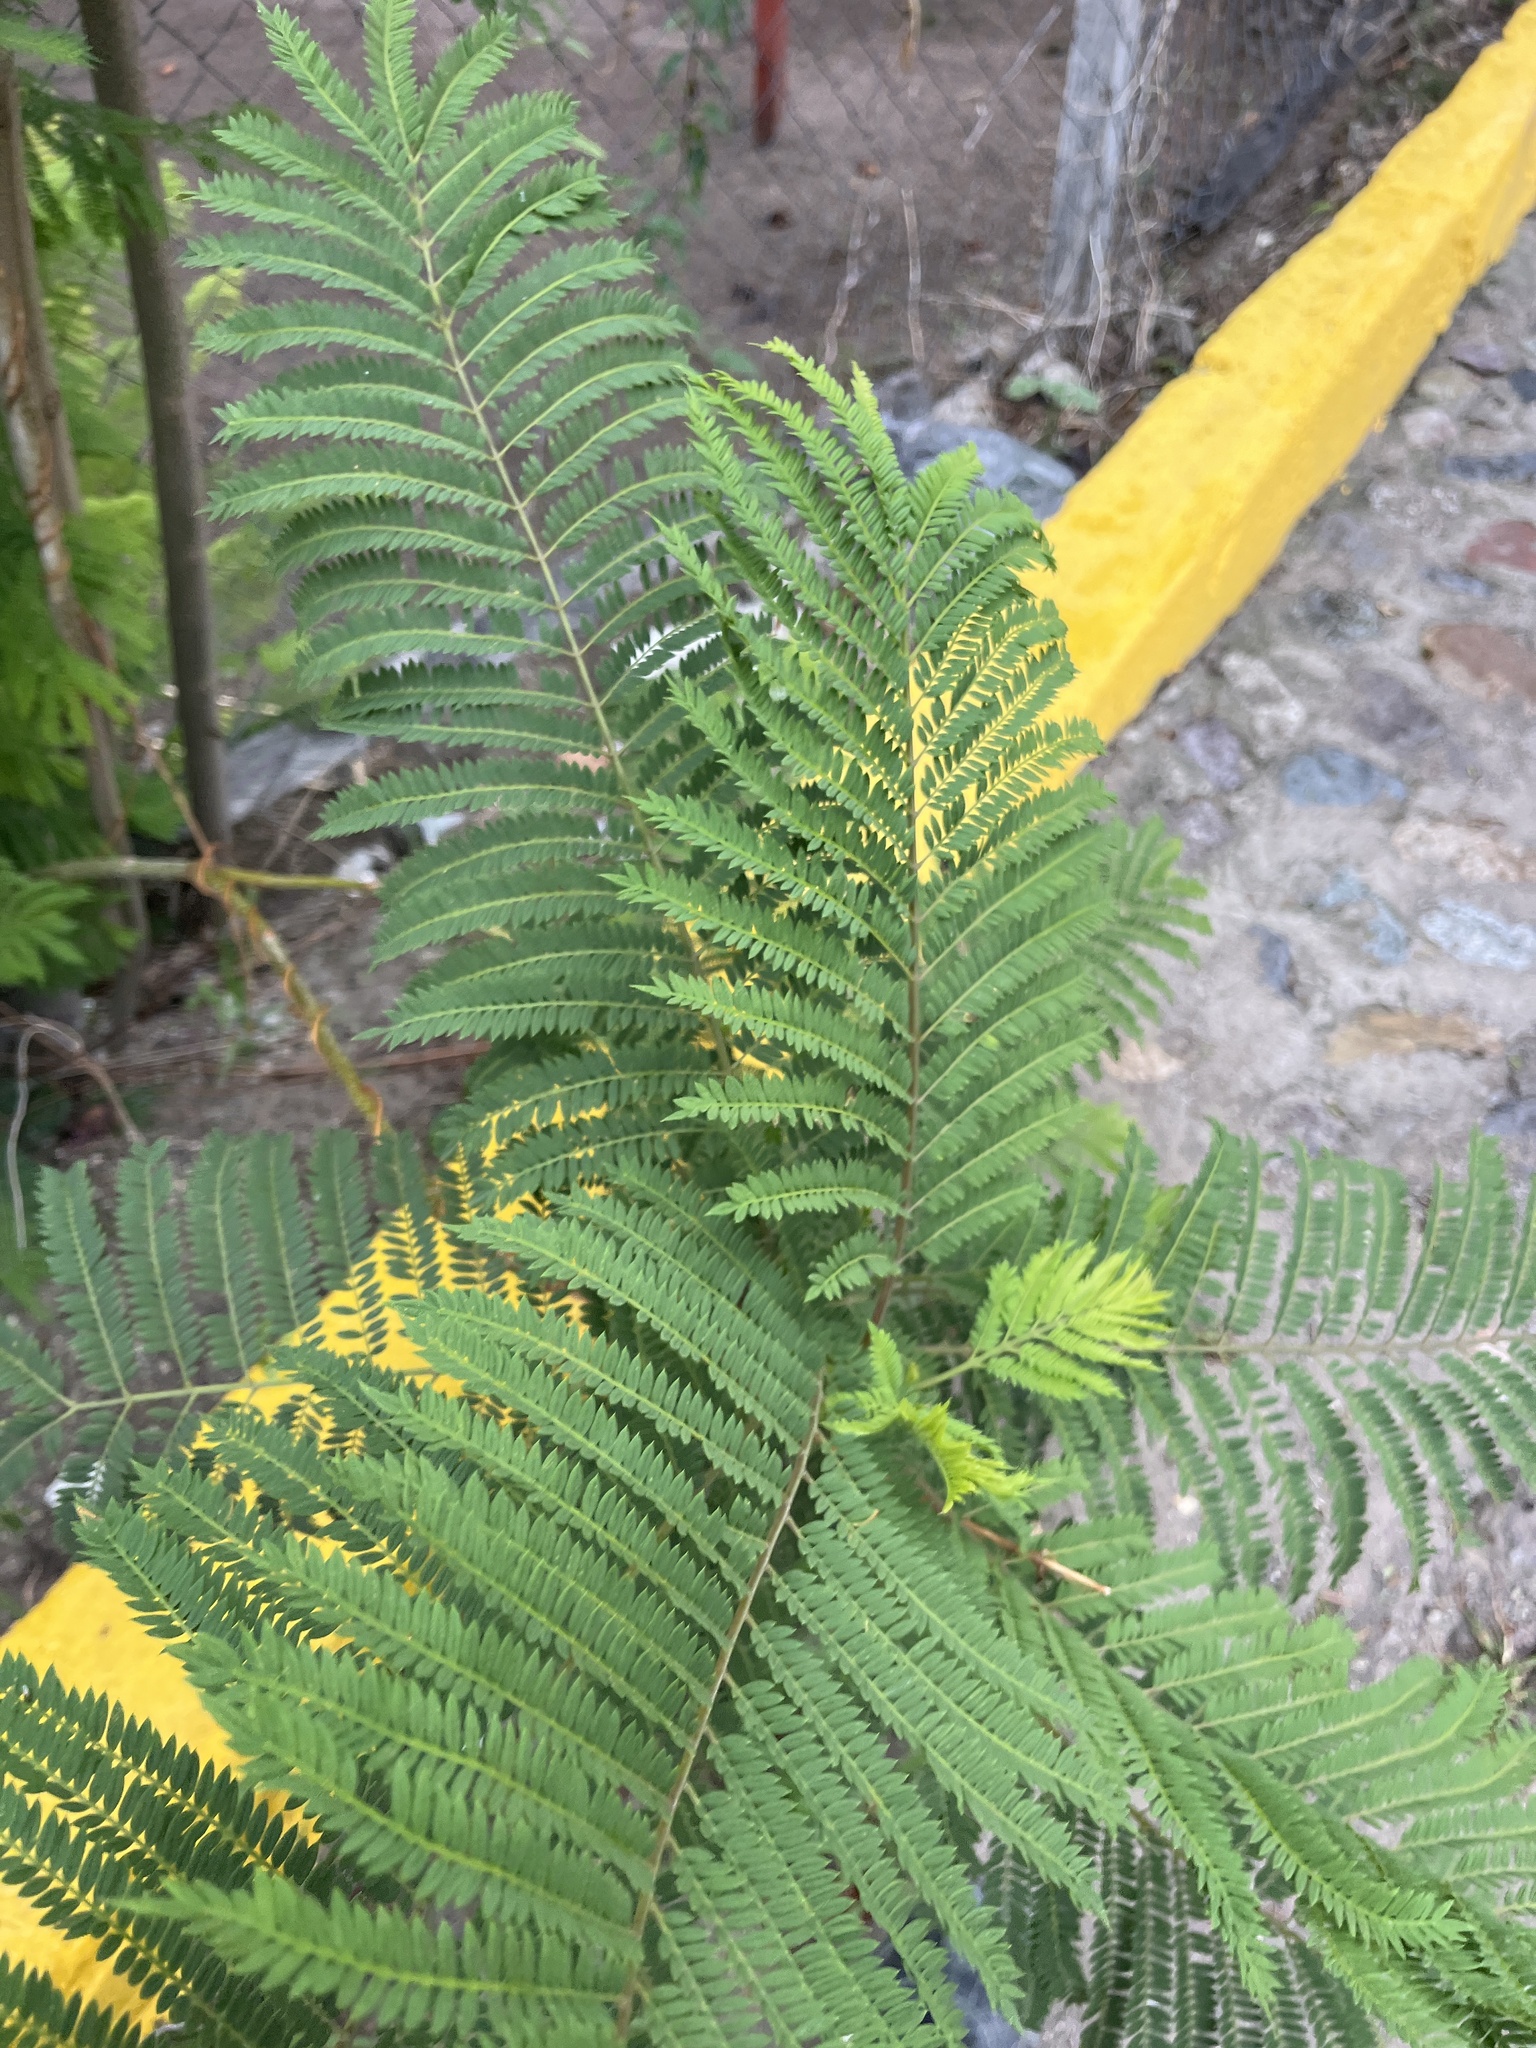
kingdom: Plantae
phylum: Tracheophyta
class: Magnoliopsida
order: Lamiales
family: Bignoniaceae
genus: Jacaranda
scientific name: Jacaranda mimosifolia
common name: Black poui
